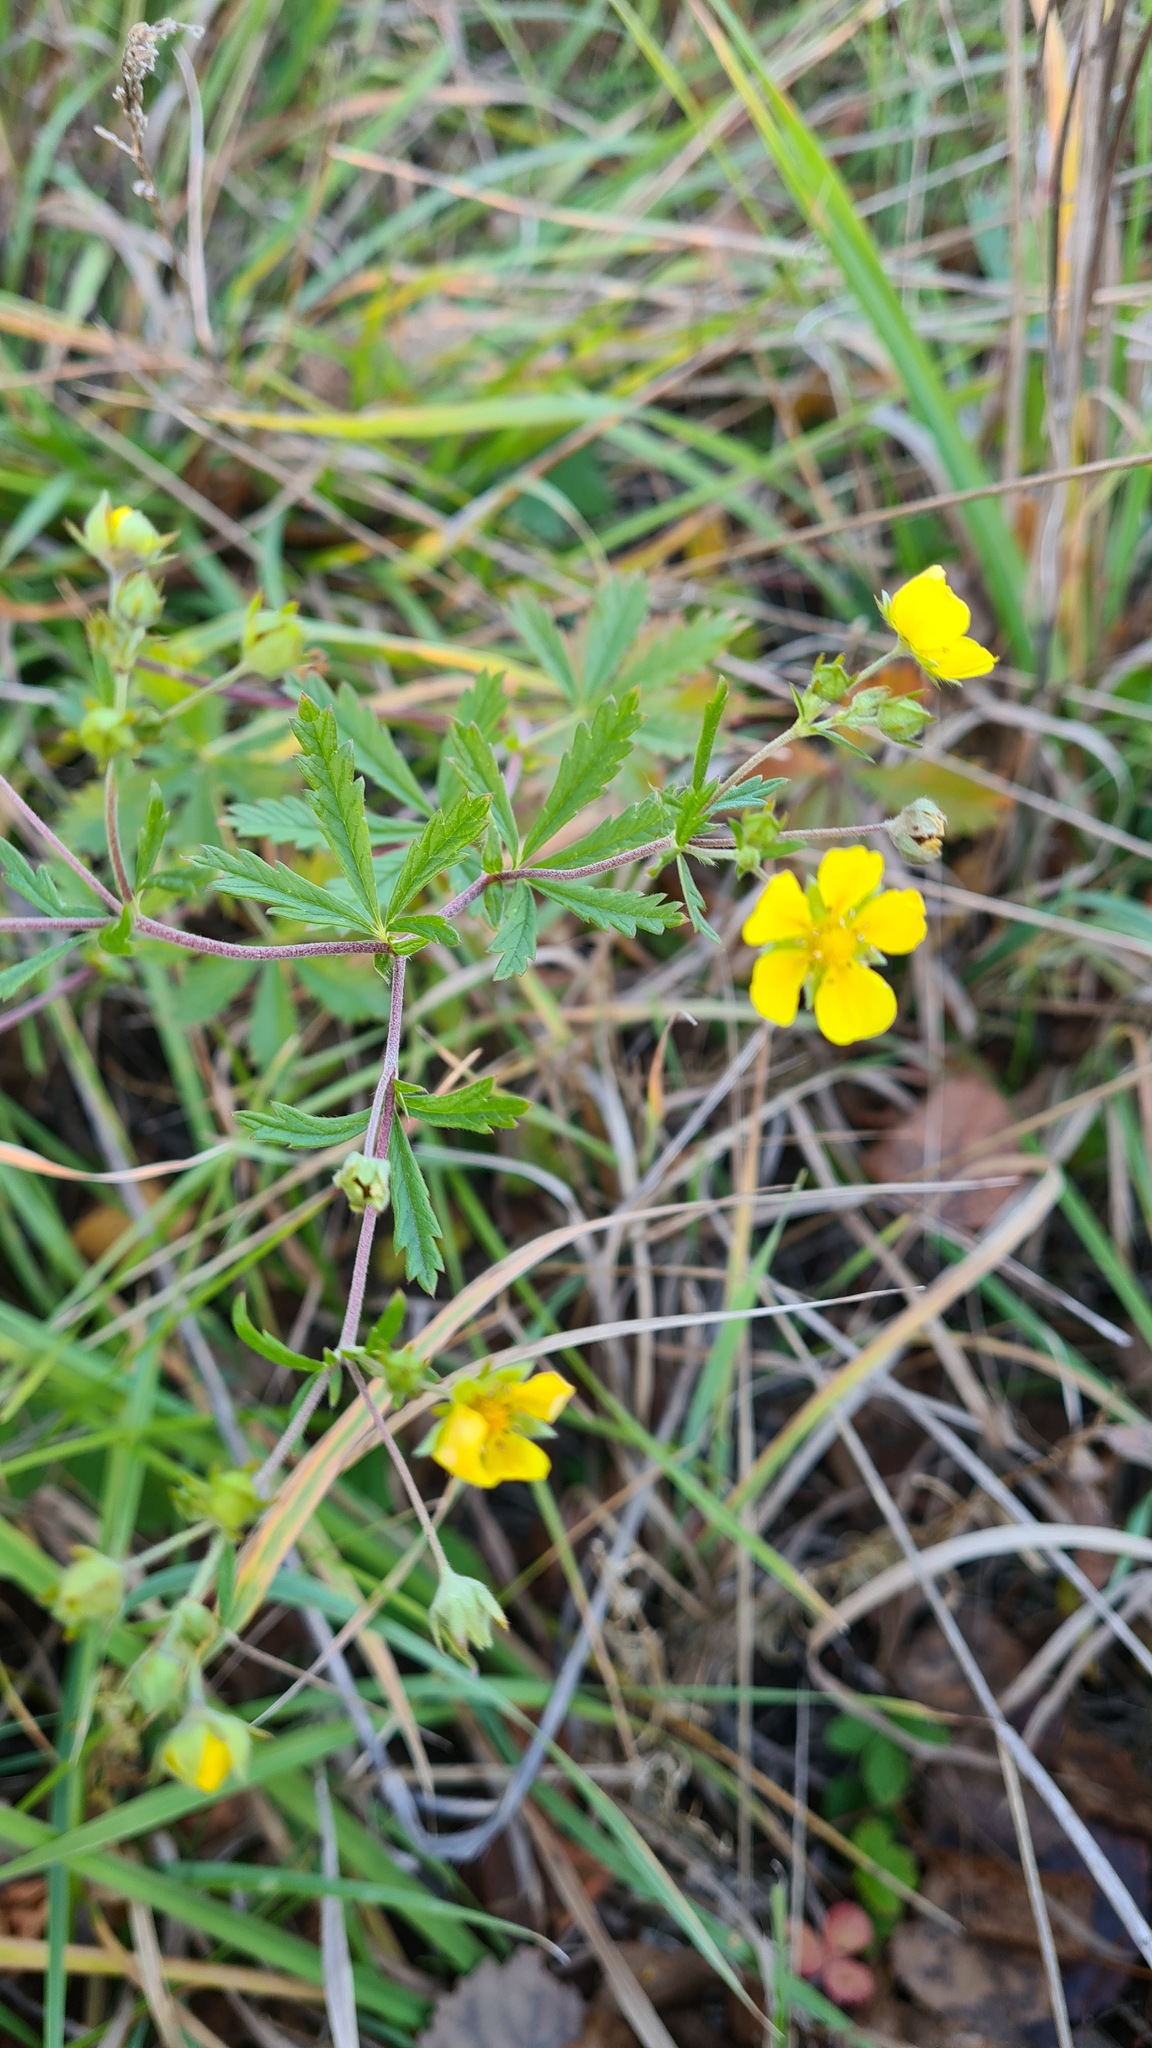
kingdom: Plantae
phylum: Tracheophyta
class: Magnoliopsida
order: Rosales
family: Rosaceae
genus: Potentilla
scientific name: Potentilla argentea
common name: Hoary cinquefoil
